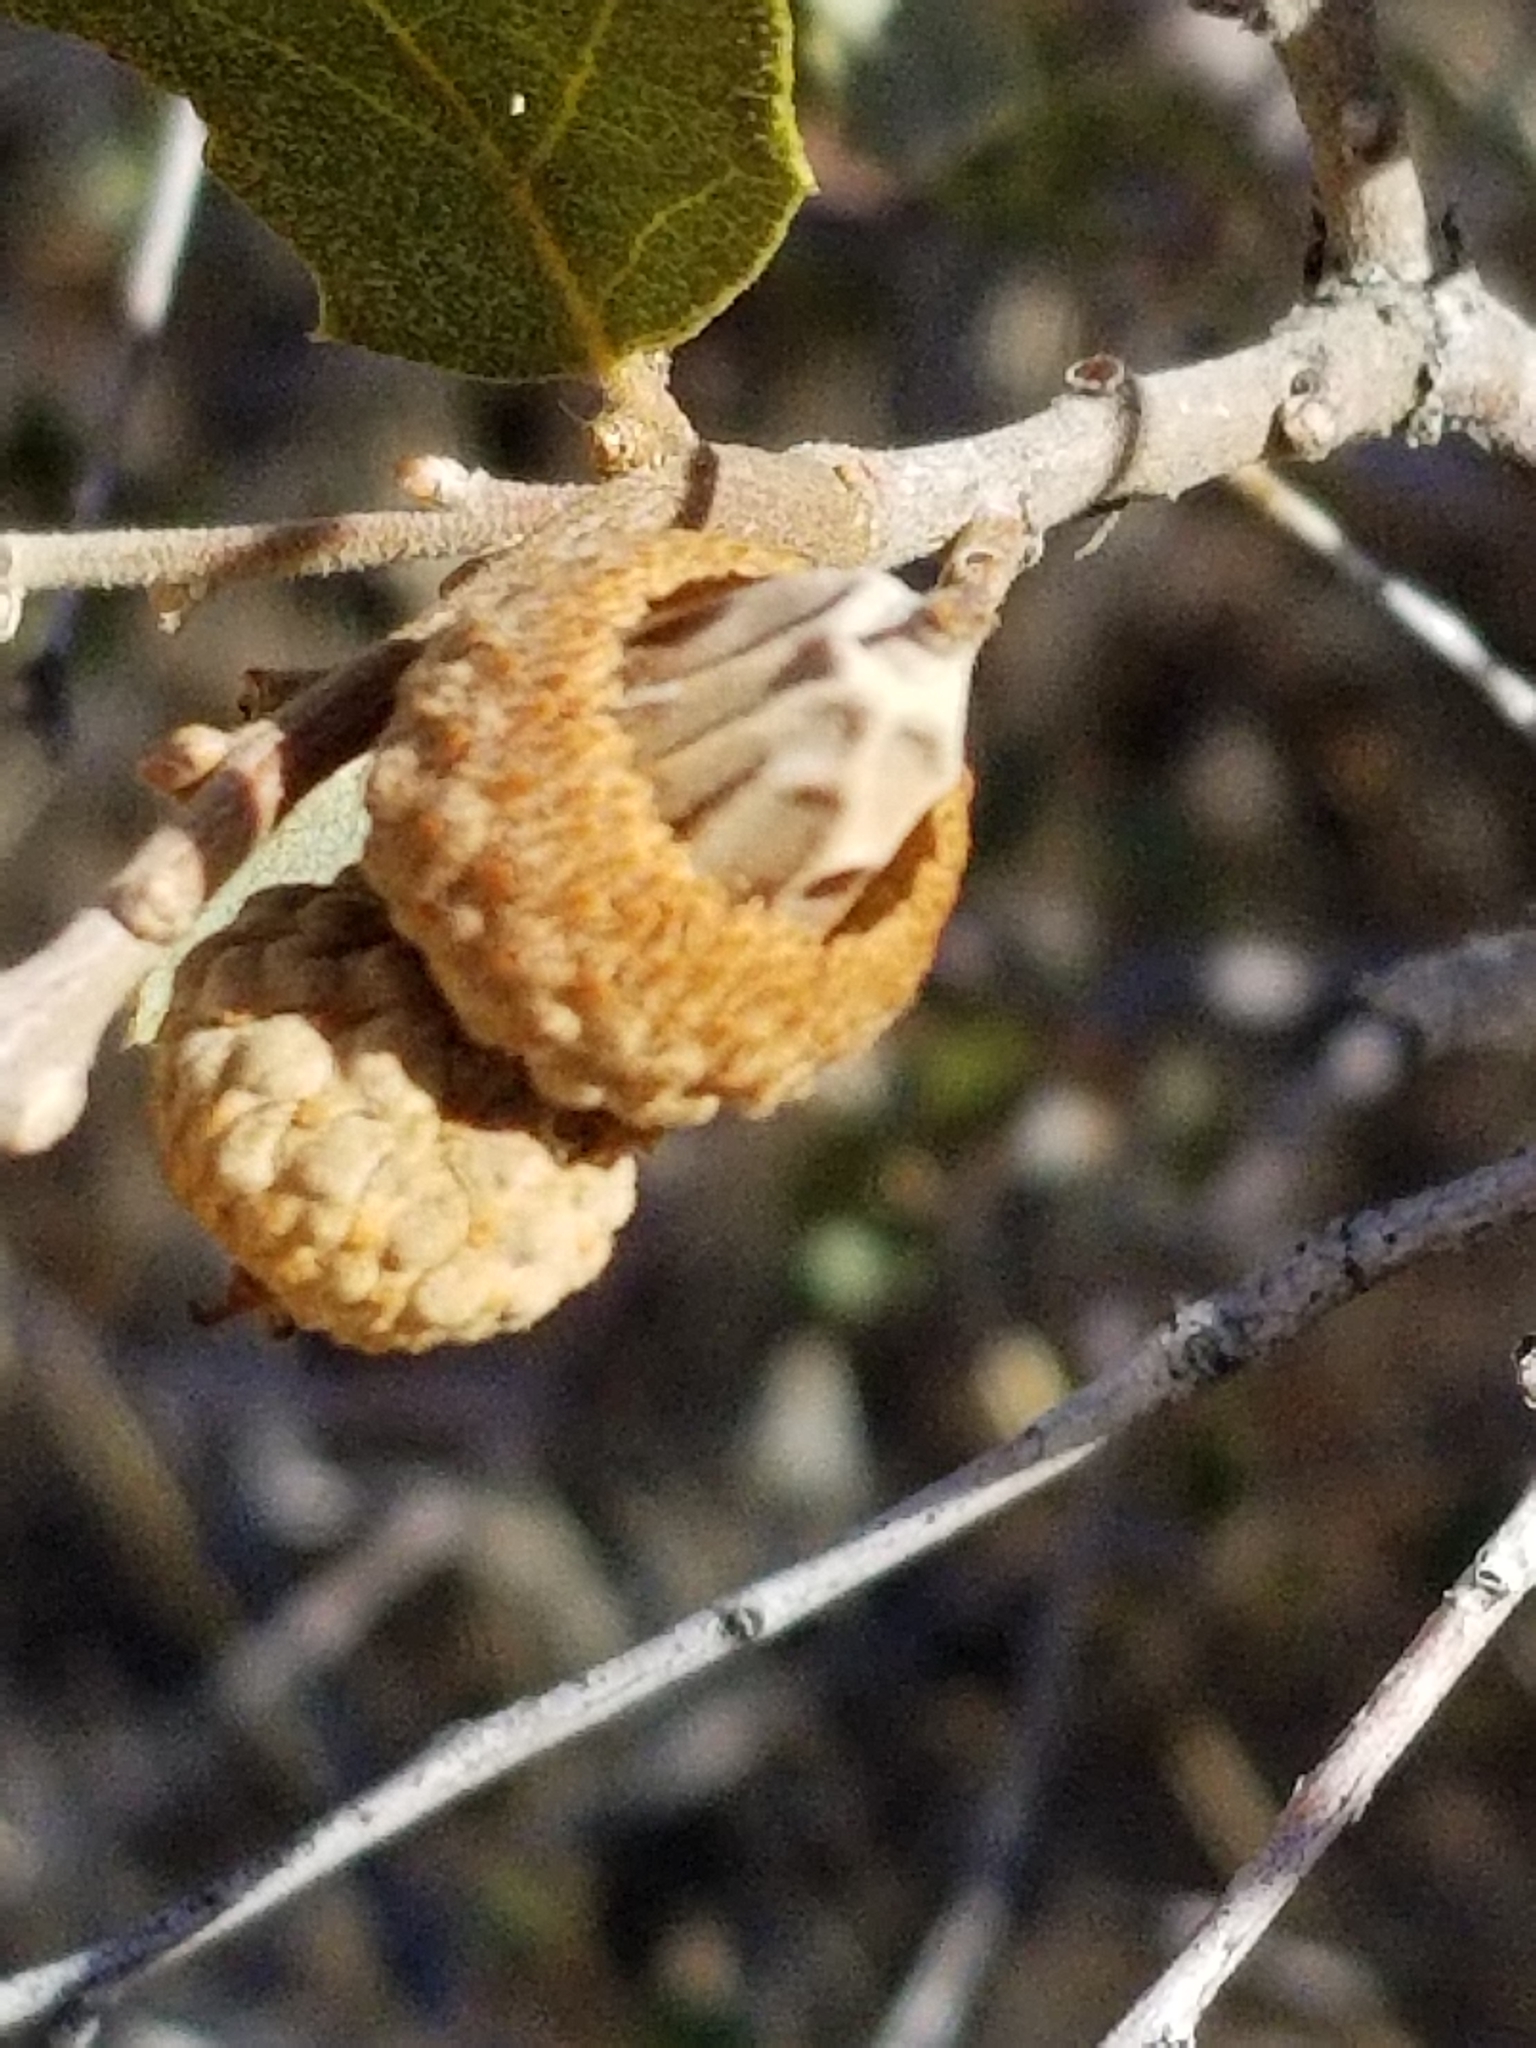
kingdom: Plantae
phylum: Tracheophyta
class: Magnoliopsida
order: Fagales
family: Fagaceae
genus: Quercus
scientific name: Quercus cornelius-mulleri
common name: Muller oak
